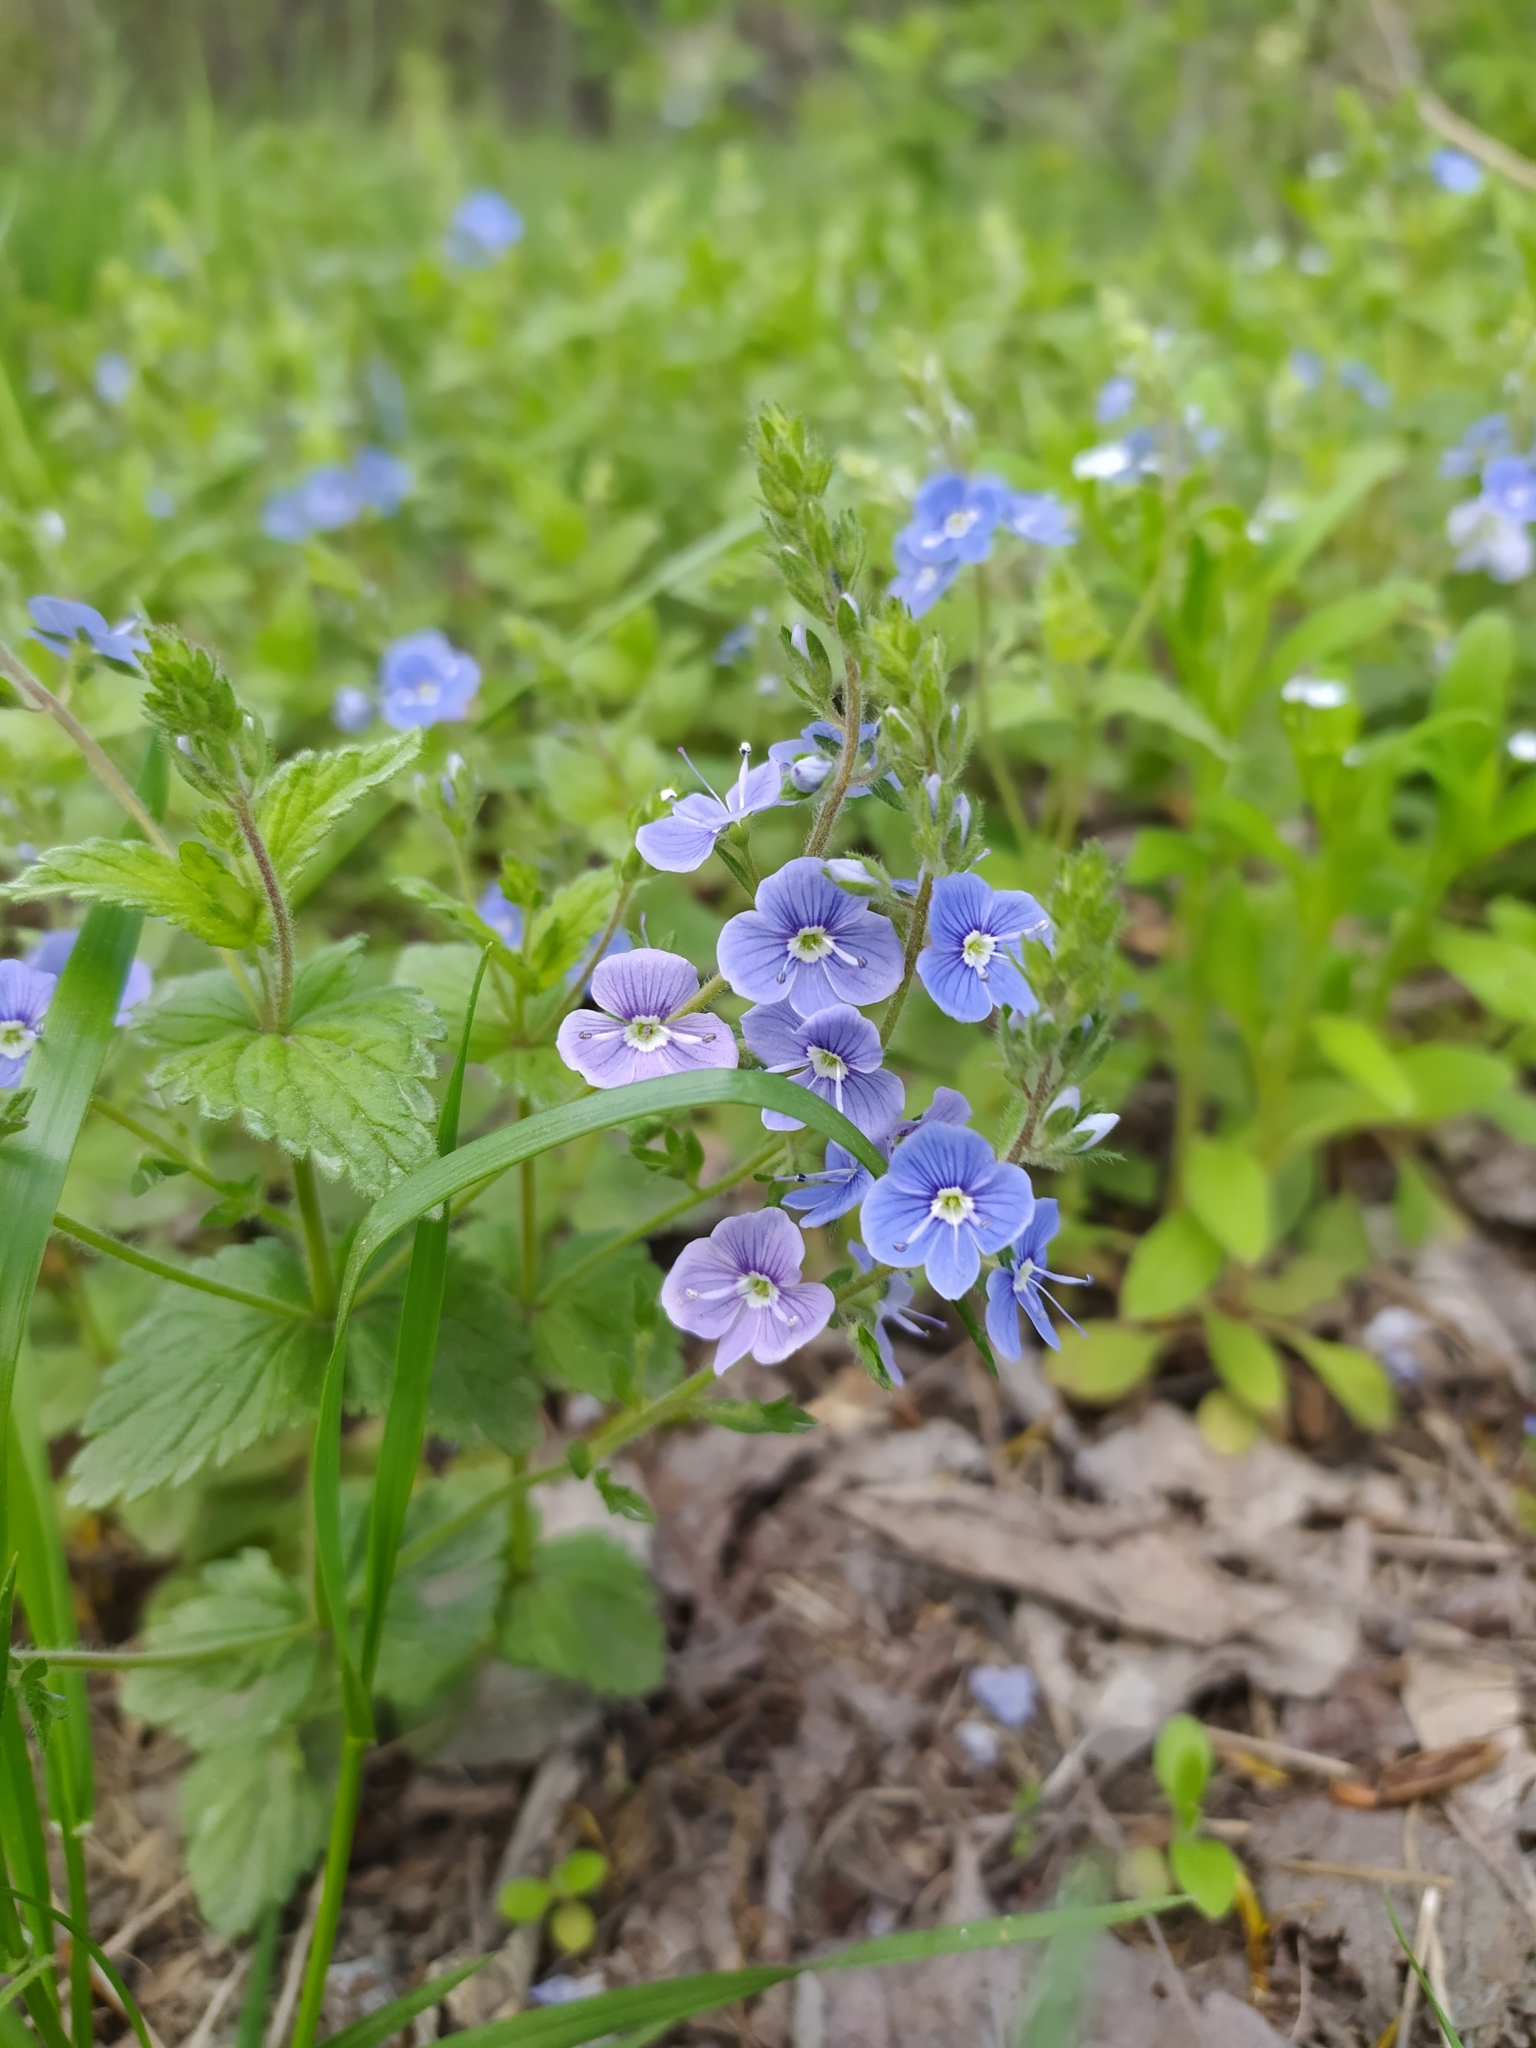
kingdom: Plantae
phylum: Tracheophyta
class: Magnoliopsida
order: Lamiales
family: Plantaginaceae
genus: Veronica
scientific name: Veronica chamaedrys
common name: Germander speedwell
